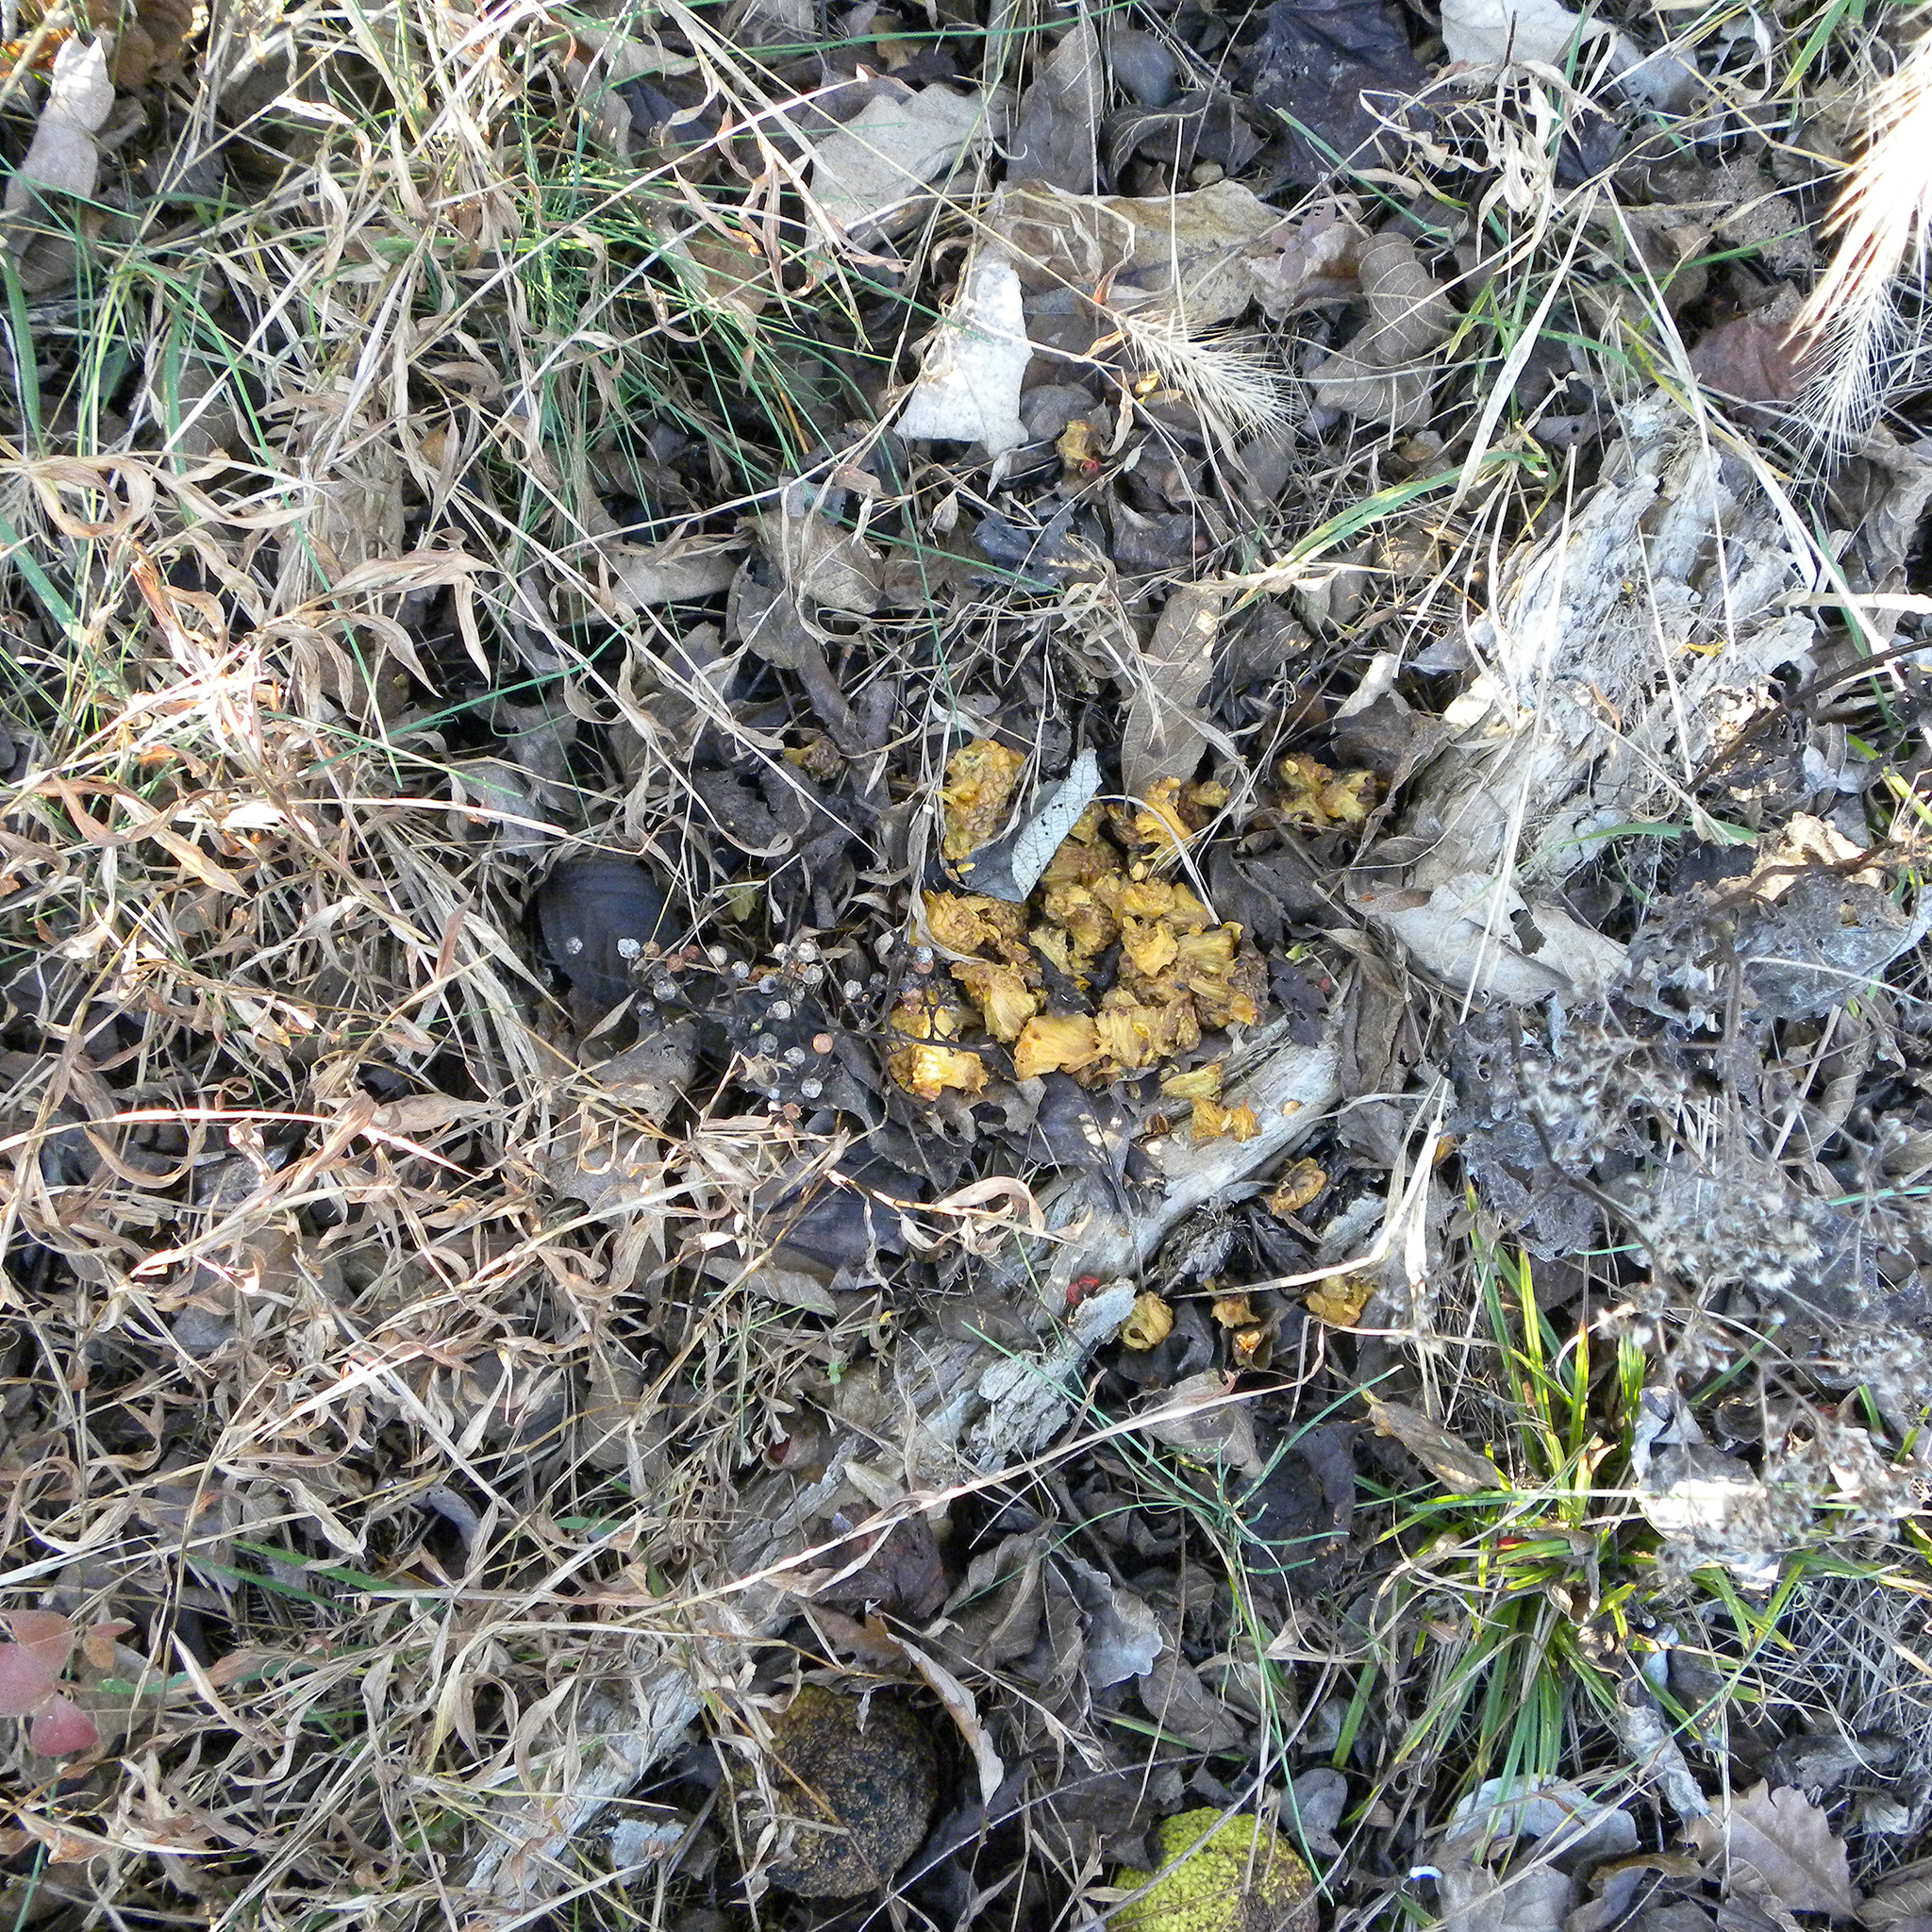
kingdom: Plantae
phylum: Tracheophyta
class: Magnoliopsida
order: Rosales
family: Moraceae
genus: Maclura
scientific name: Maclura pomifera
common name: Osage-orange
